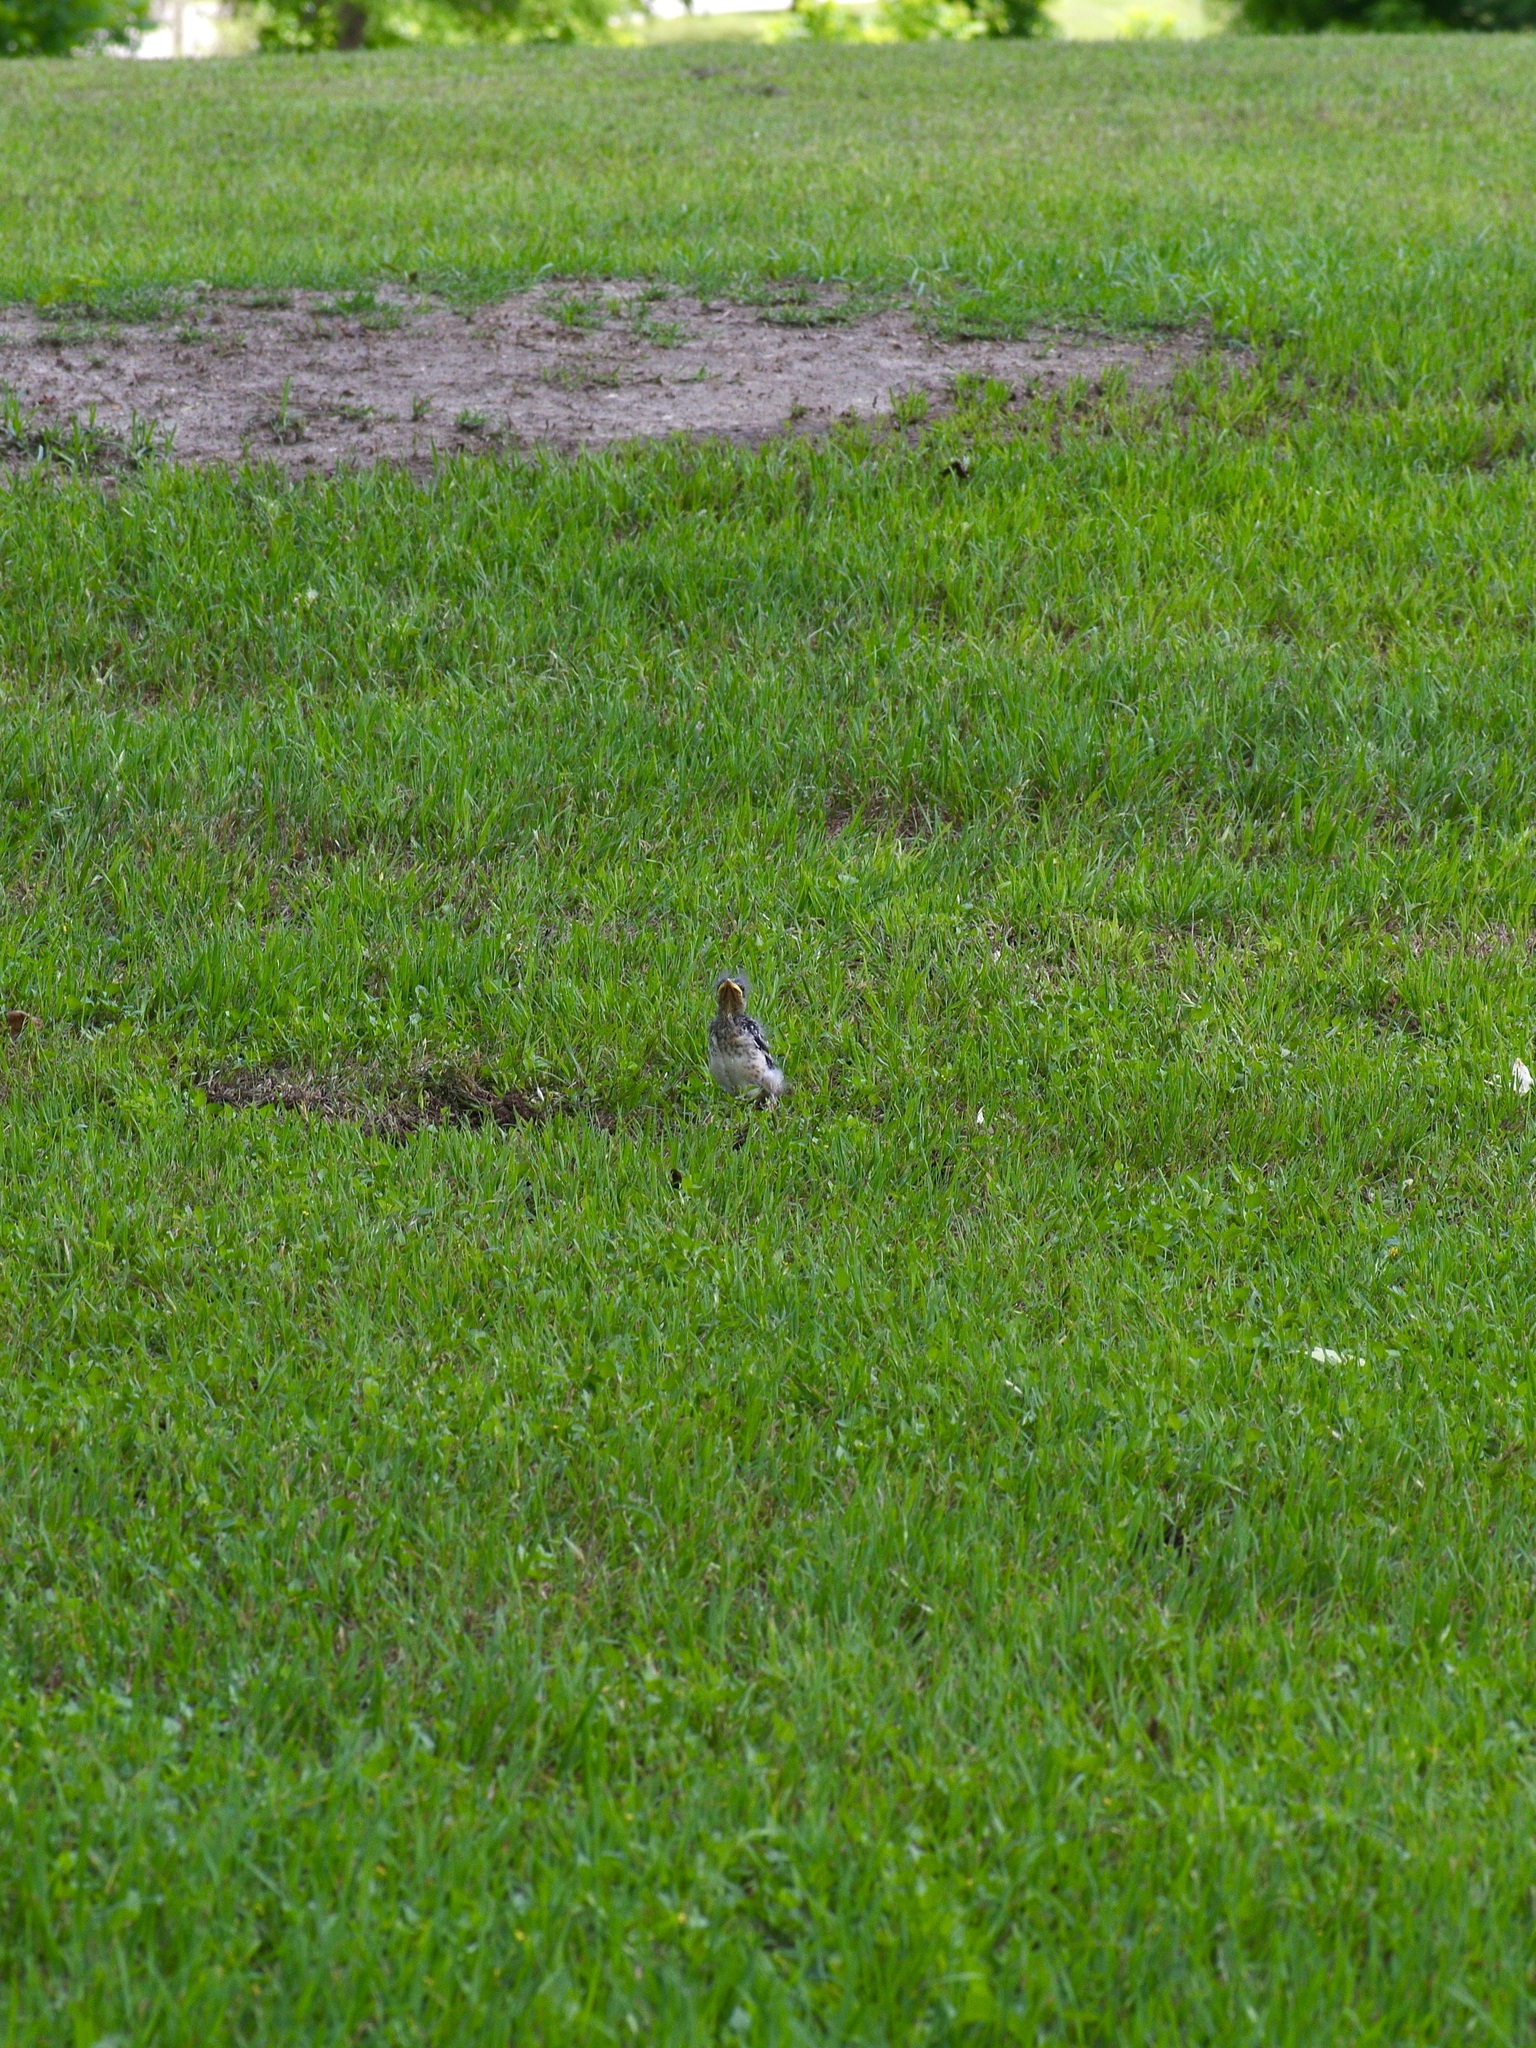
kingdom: Animalia
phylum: Chordata
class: Aves
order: Passeriformes
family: Mimidae
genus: Mimus
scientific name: Mimus polyglottos
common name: Northern mockingbird
